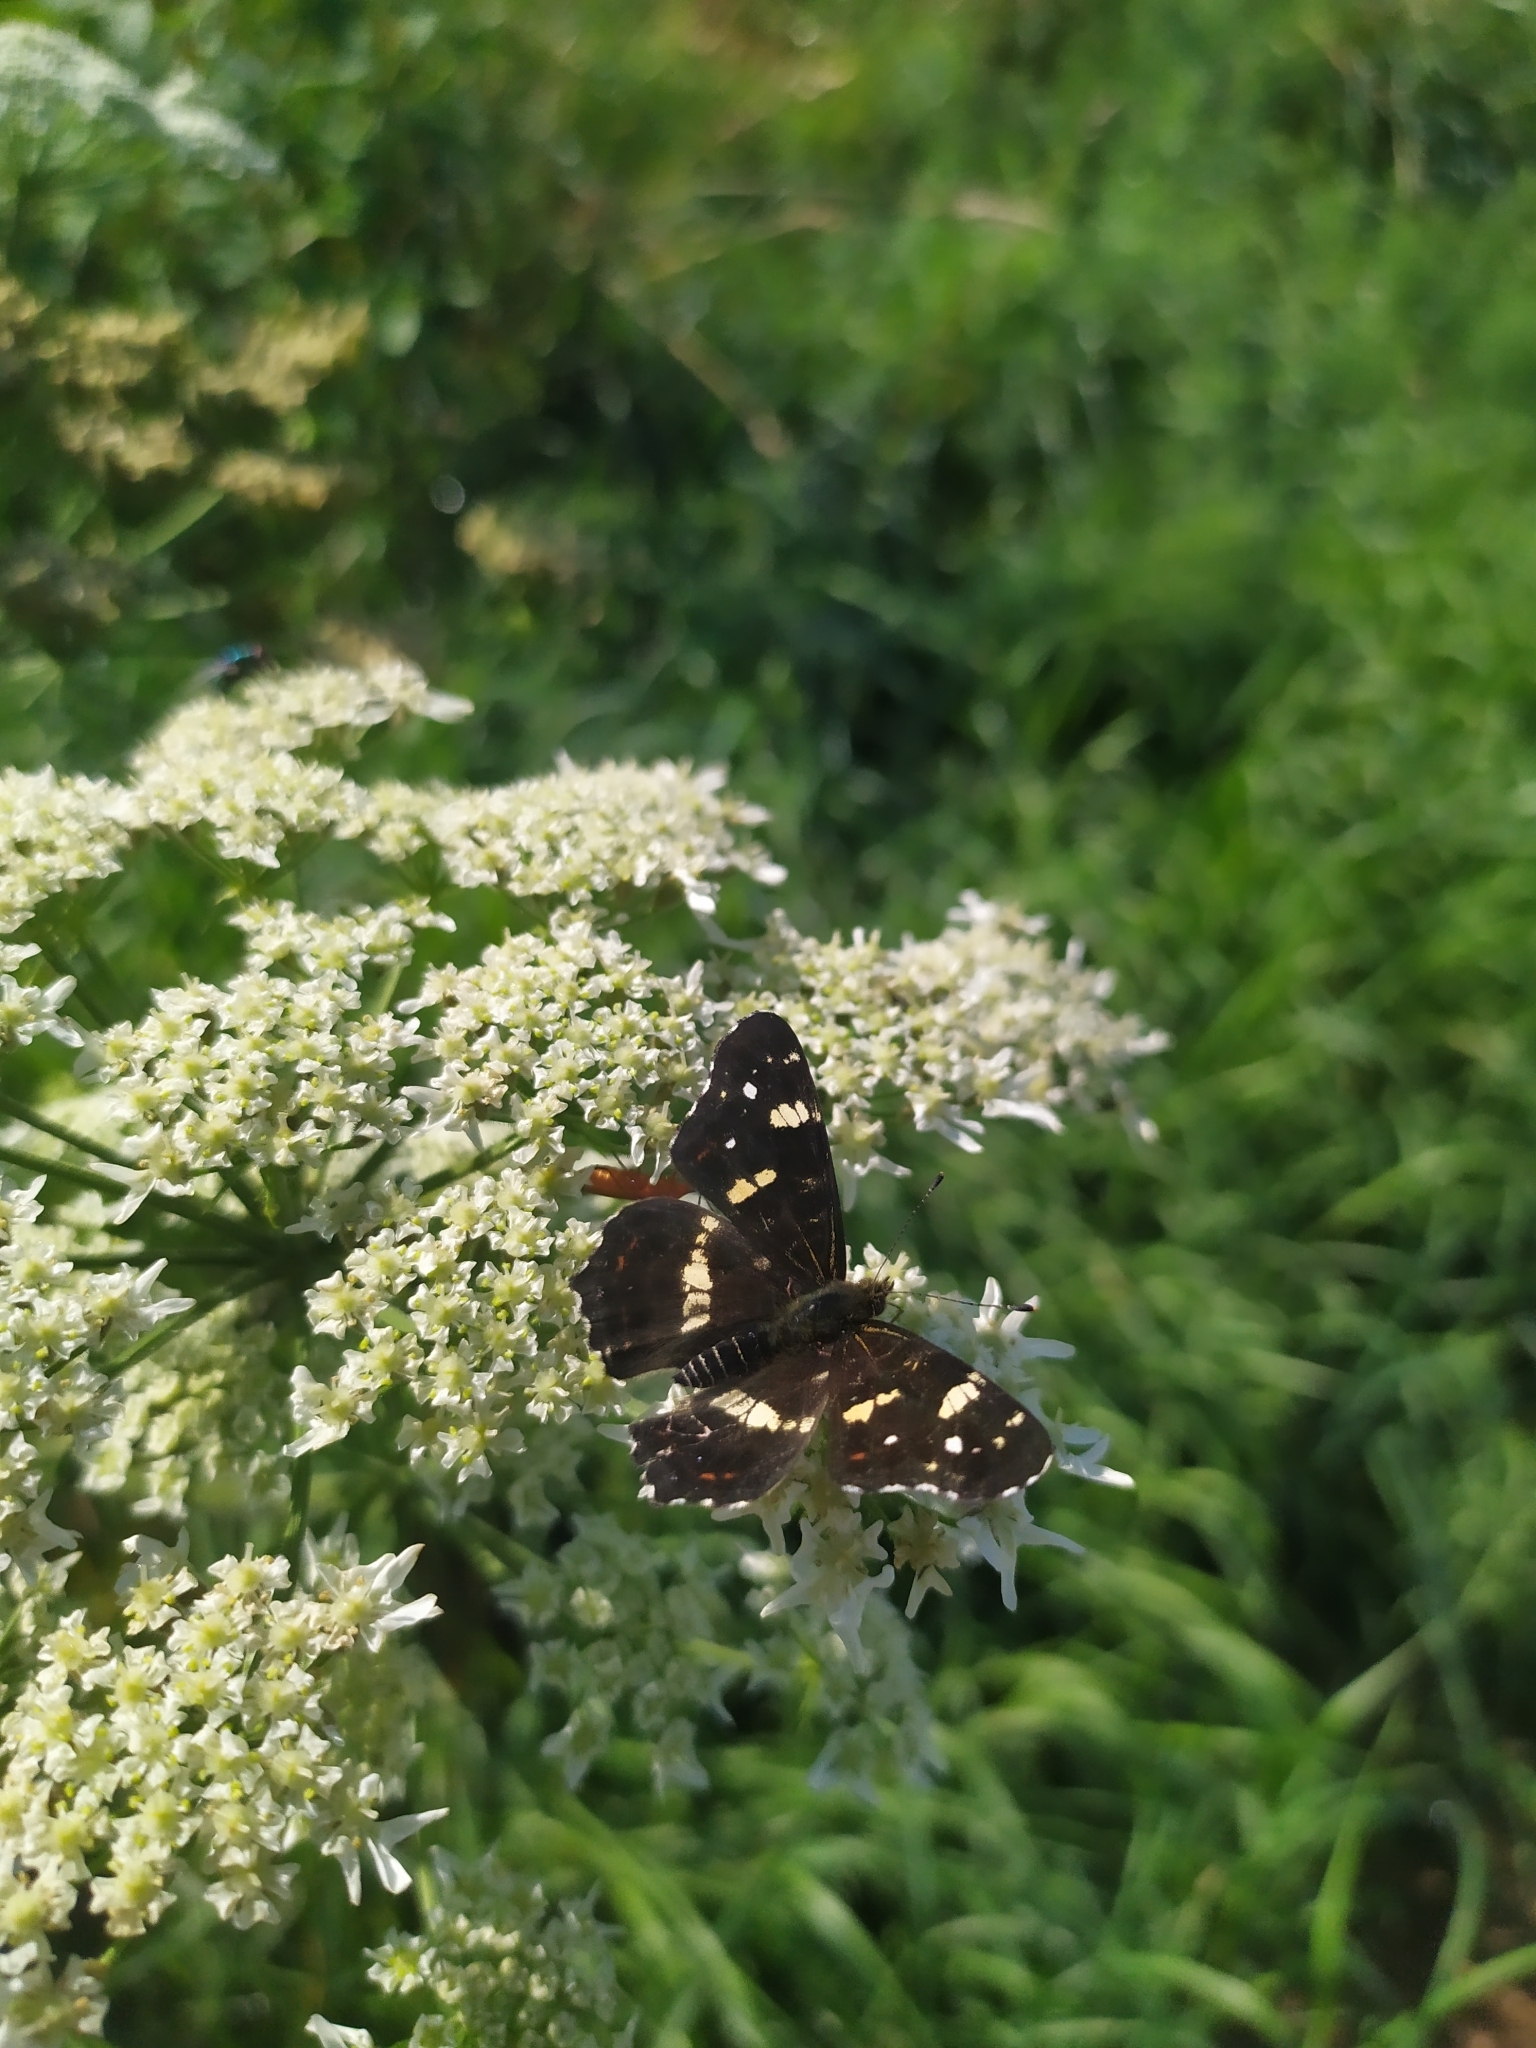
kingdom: Animalia
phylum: Arthropoda
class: Insecta
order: Lepidoptera
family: Nymphalidae
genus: Araschnia
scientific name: Araschnia levana
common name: Map butterfly
